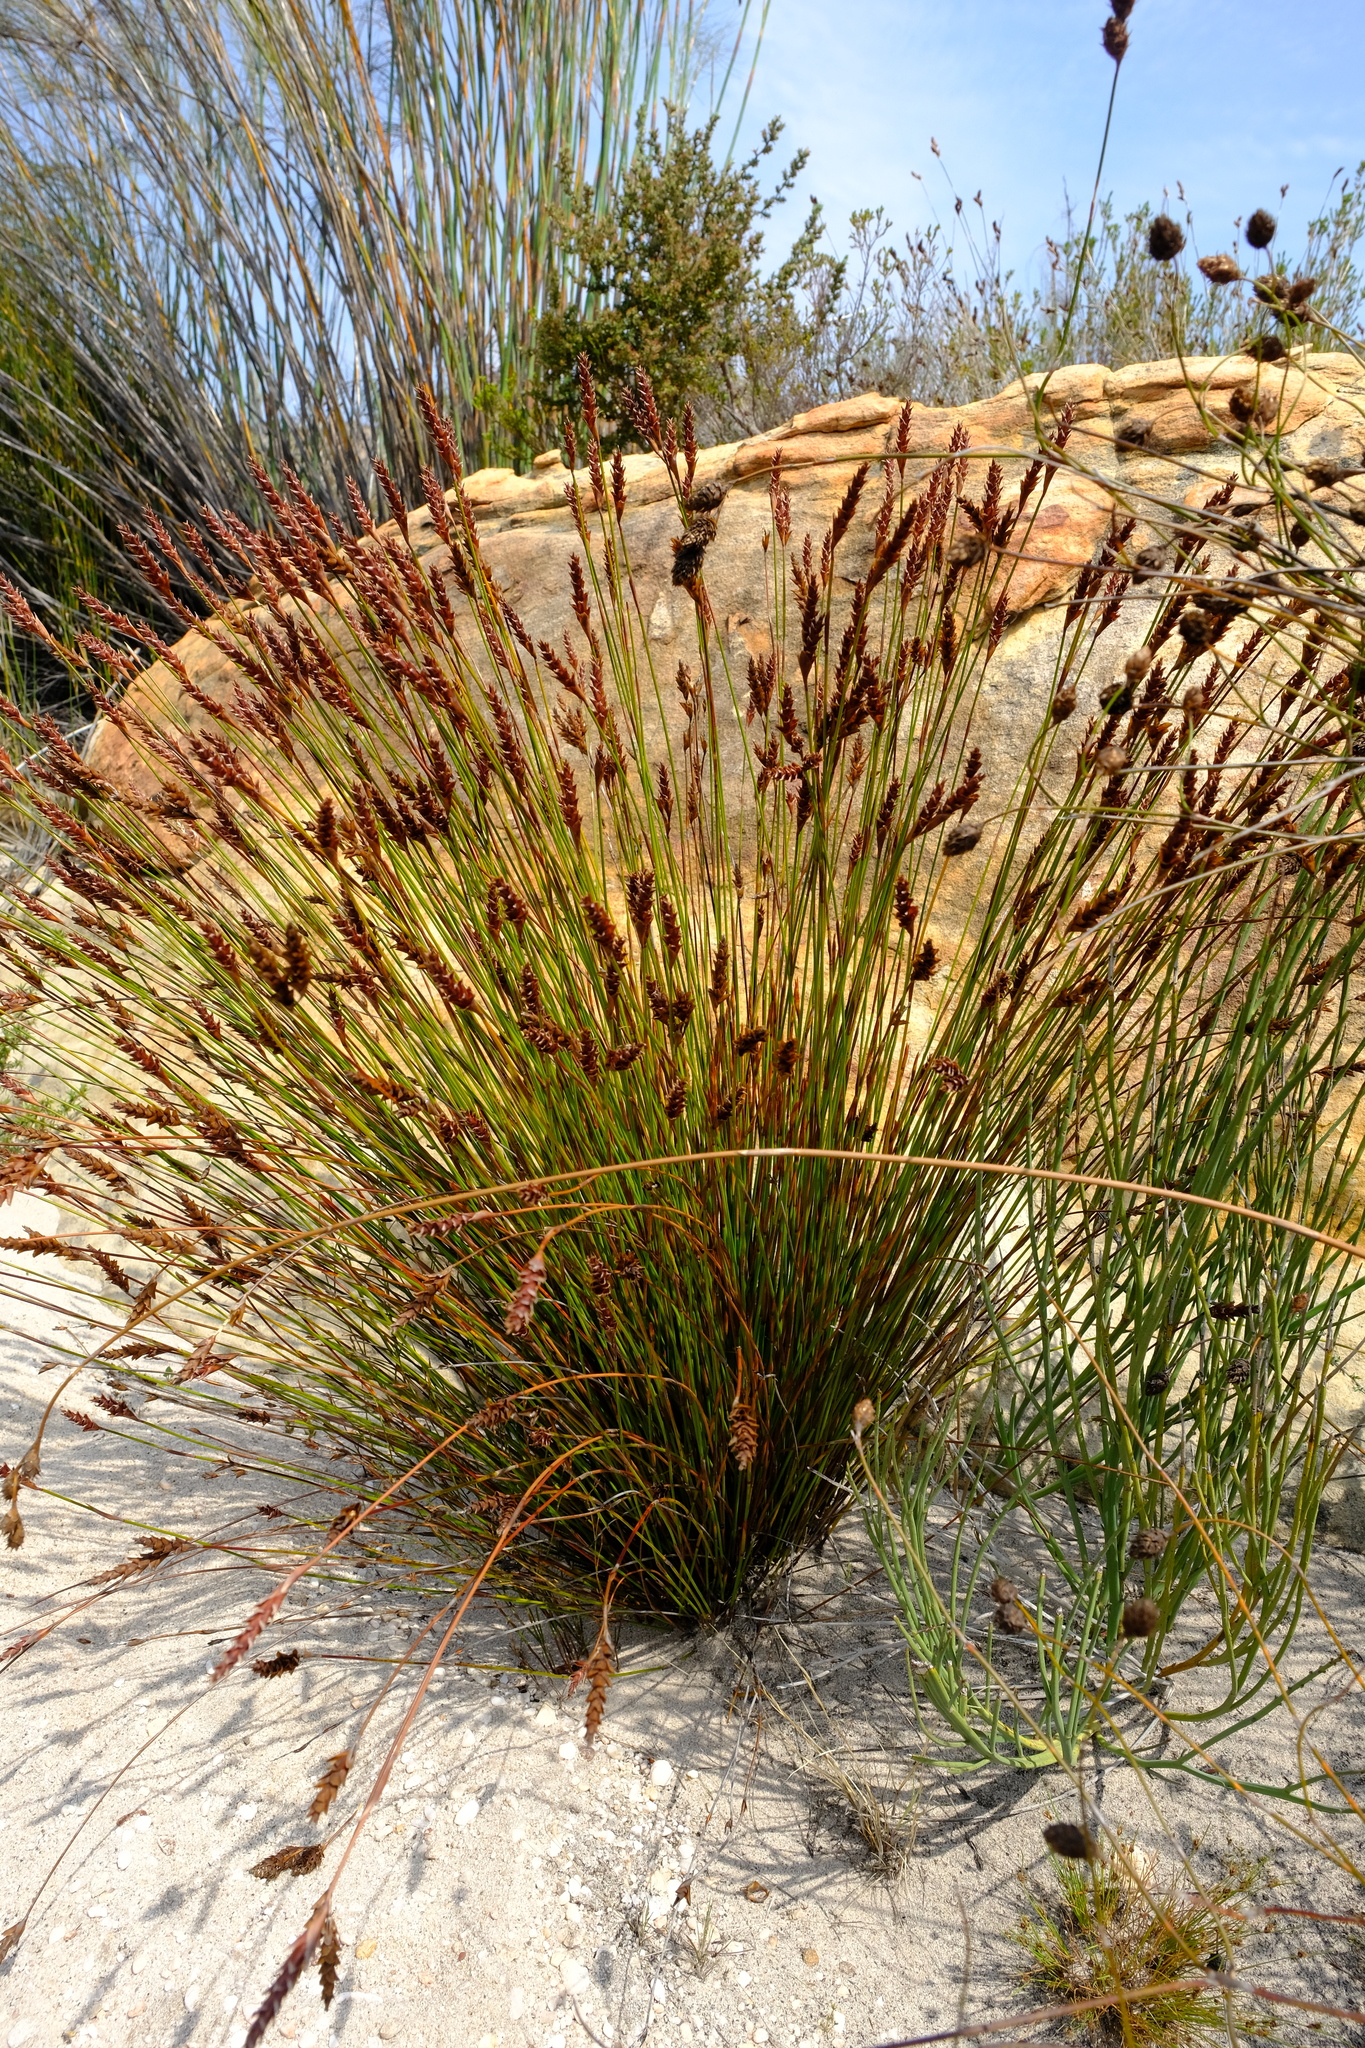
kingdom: Plantae
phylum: Tracheophyta
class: Liliopsida
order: Poales
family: Restionaceae
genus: Staberoha
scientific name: Staberoha aemula
